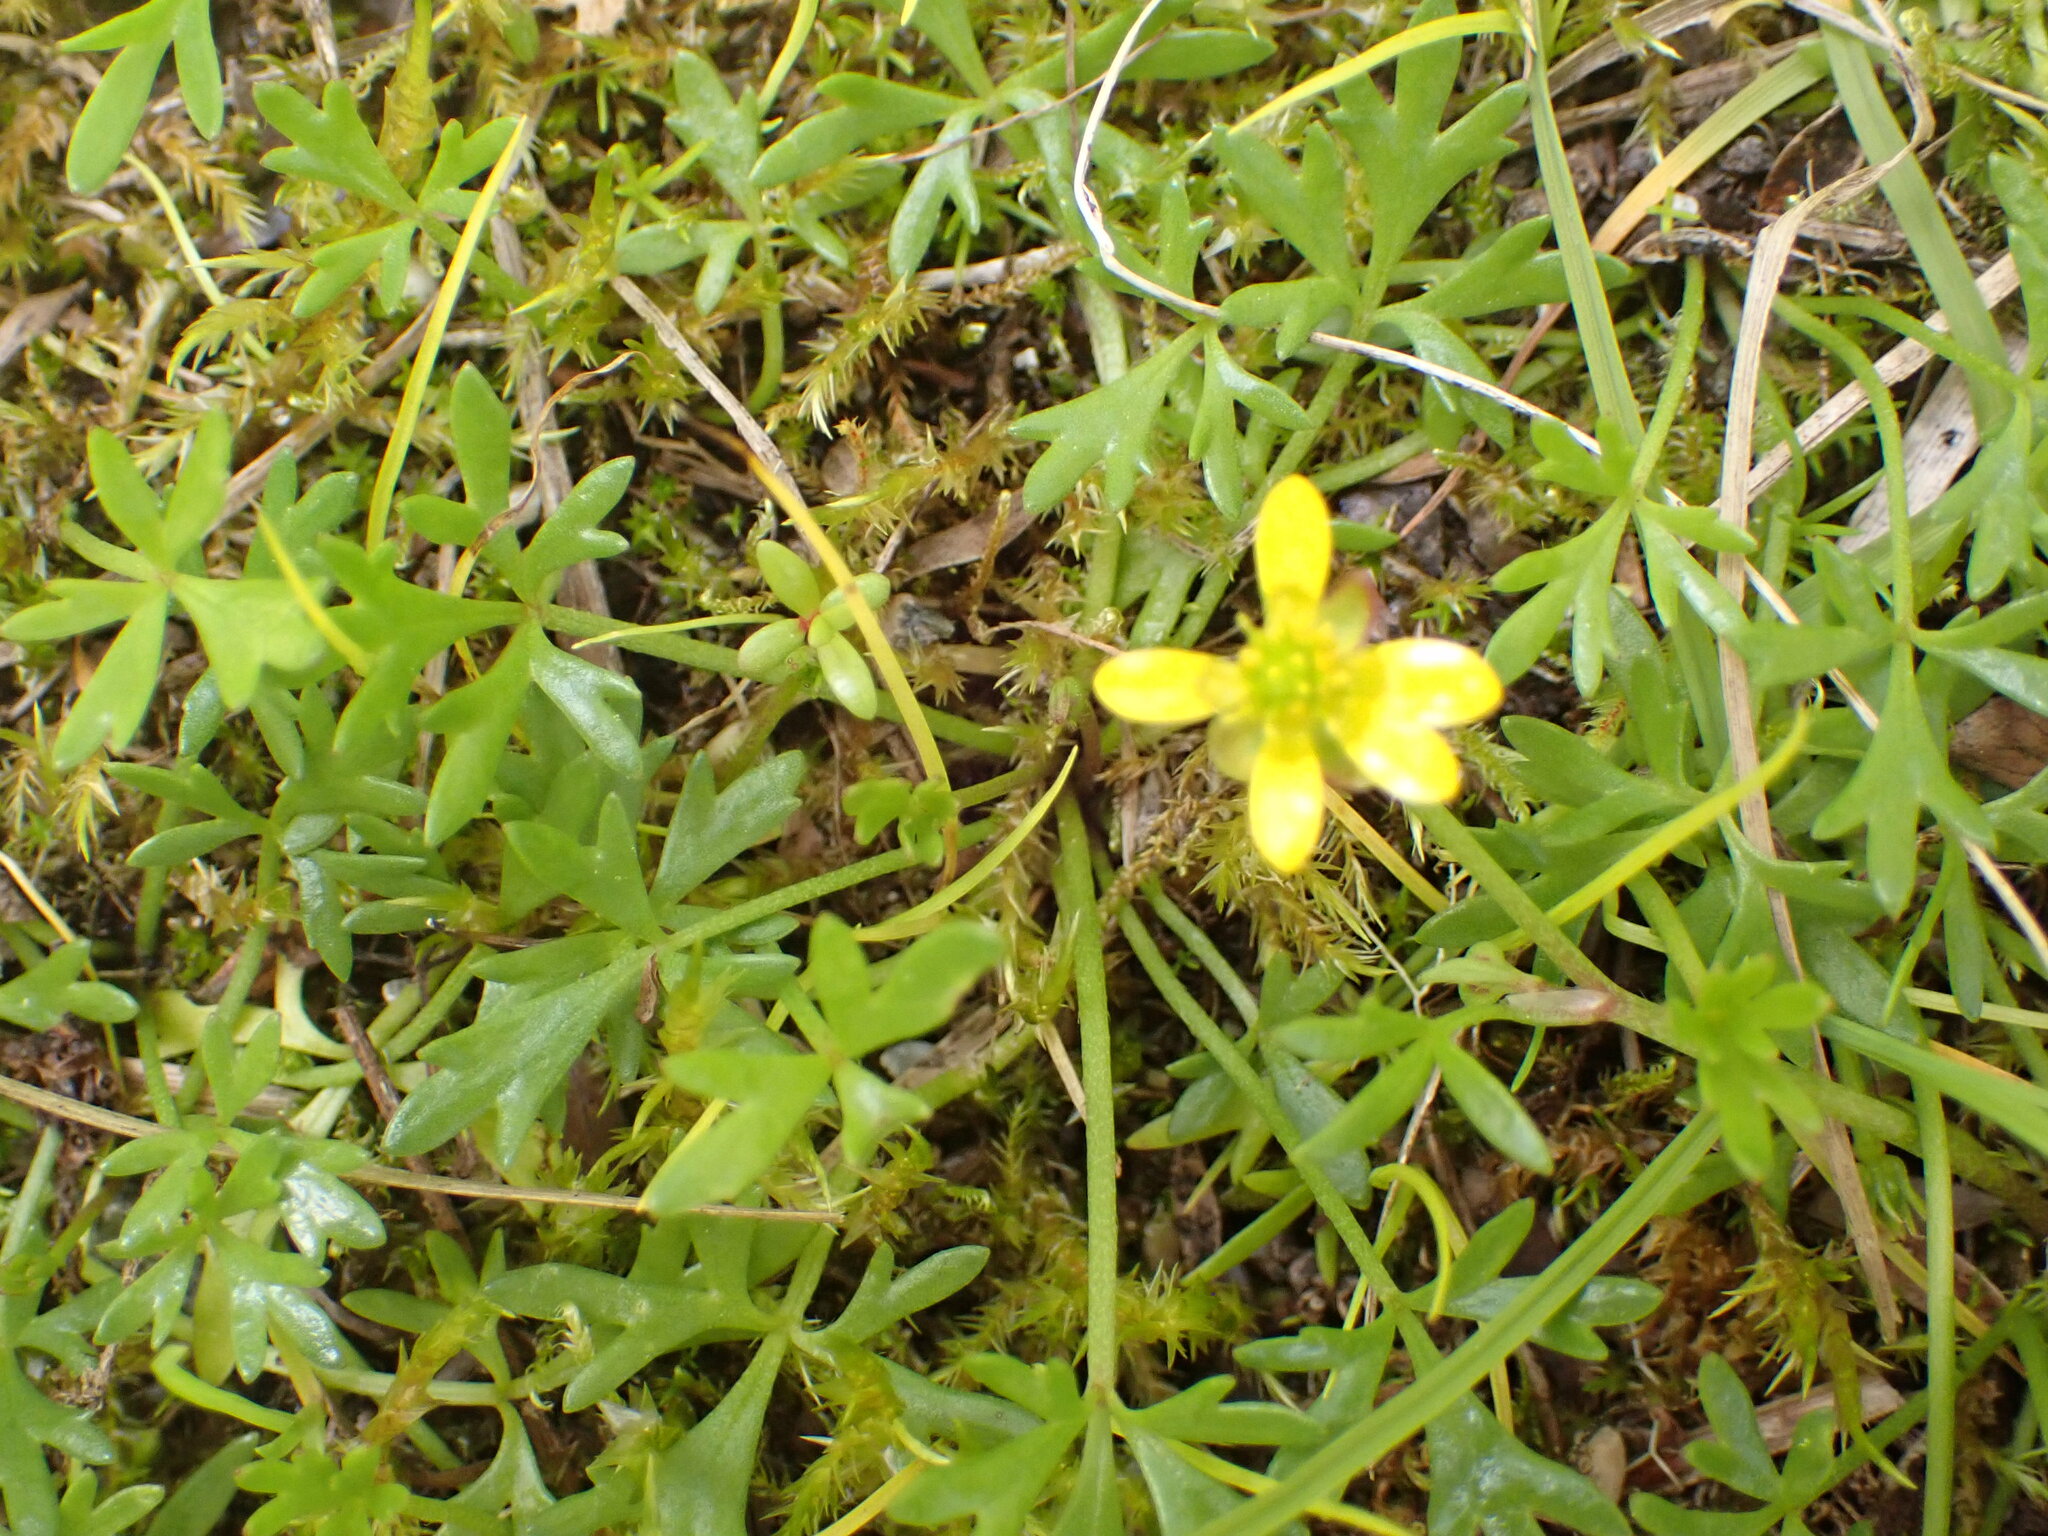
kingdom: Plantae
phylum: Tracheophyta
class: Magnoliopsida
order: Ranunculales
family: Ranunculaceae
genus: Ranunculus
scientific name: Ranunculus glabrifolius
